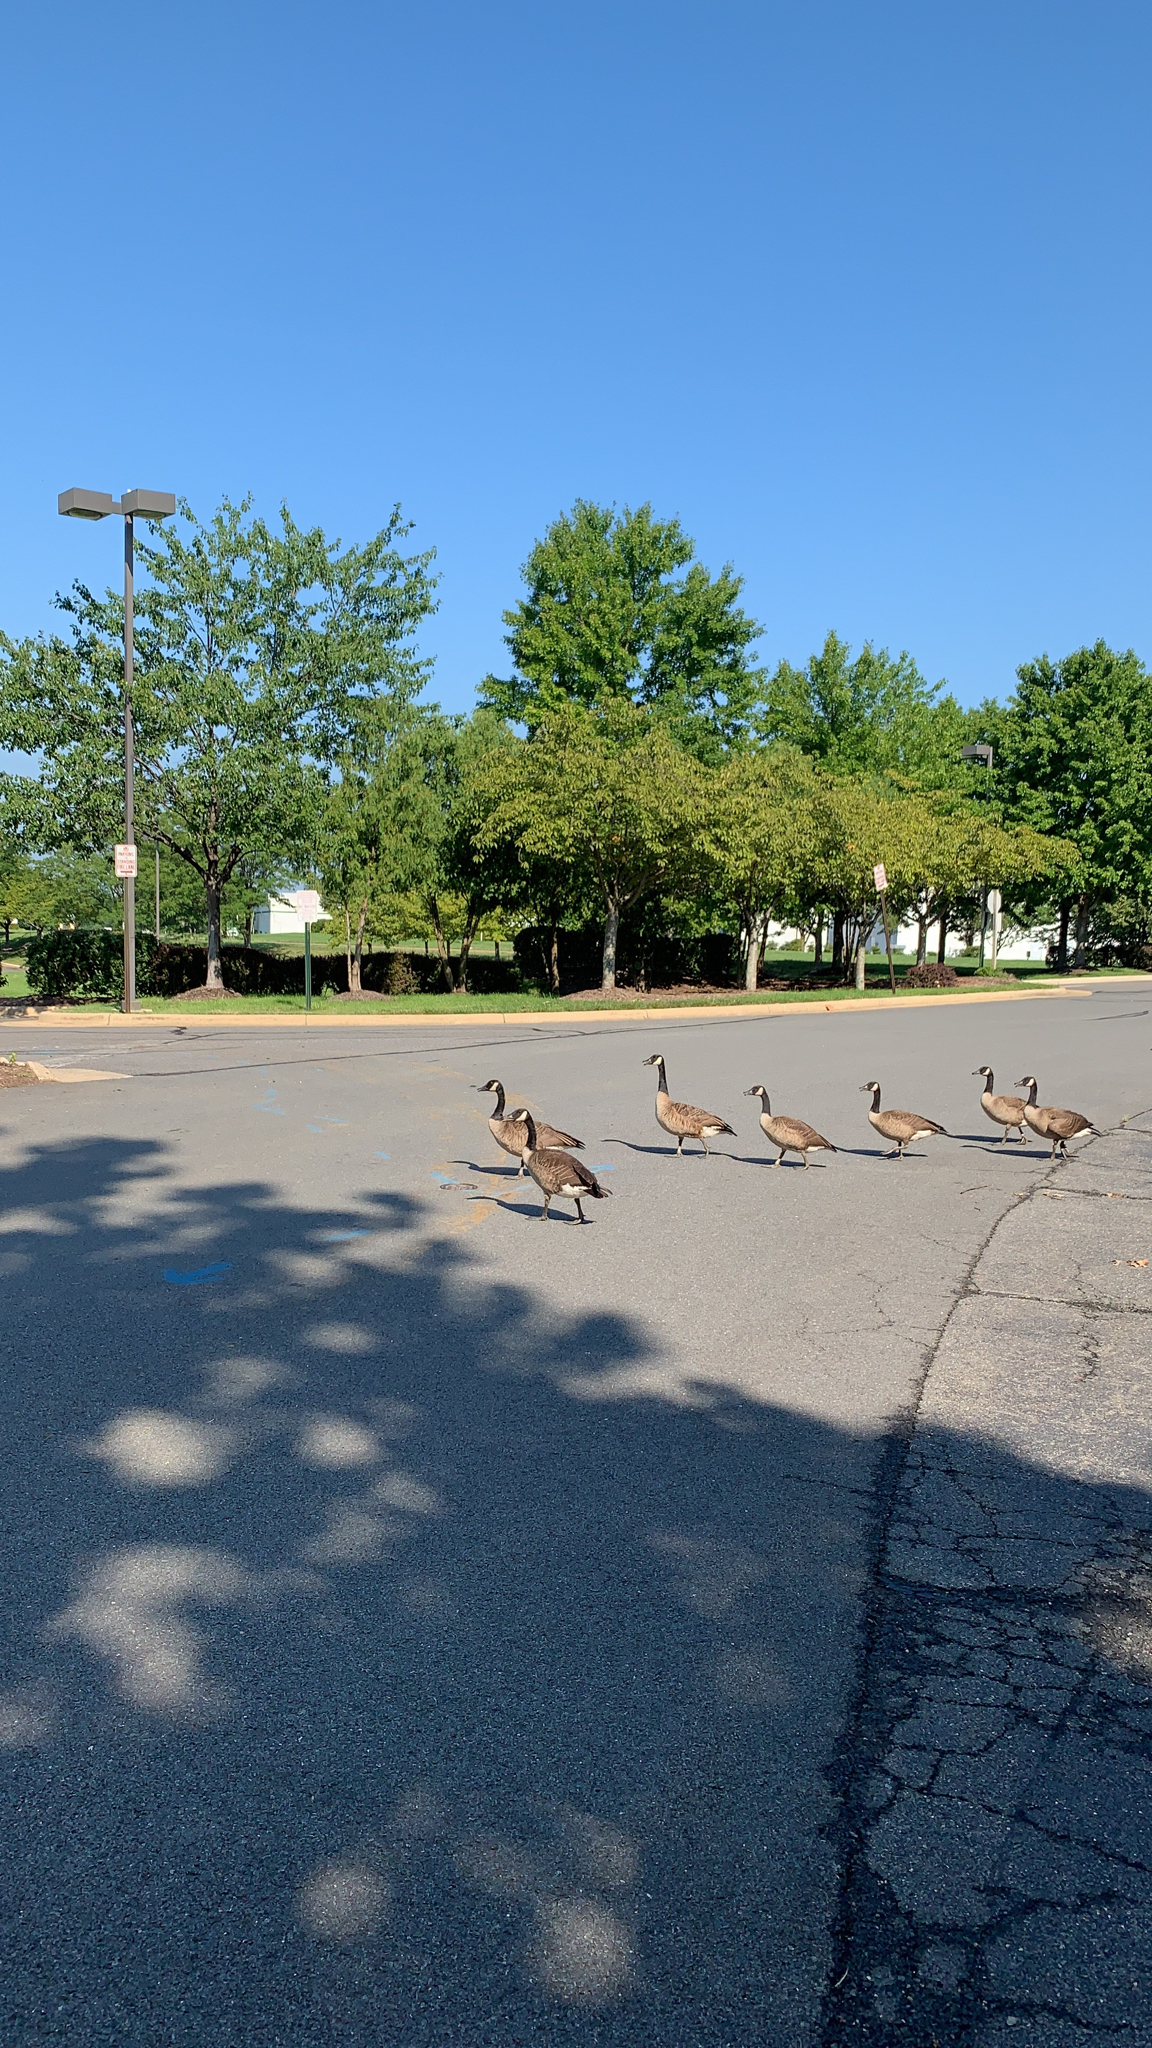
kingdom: Animalia
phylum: Chordata
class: Aves
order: Anseriformes
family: Anatidae
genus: Branta
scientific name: Branta canadensis
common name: Canada goose
